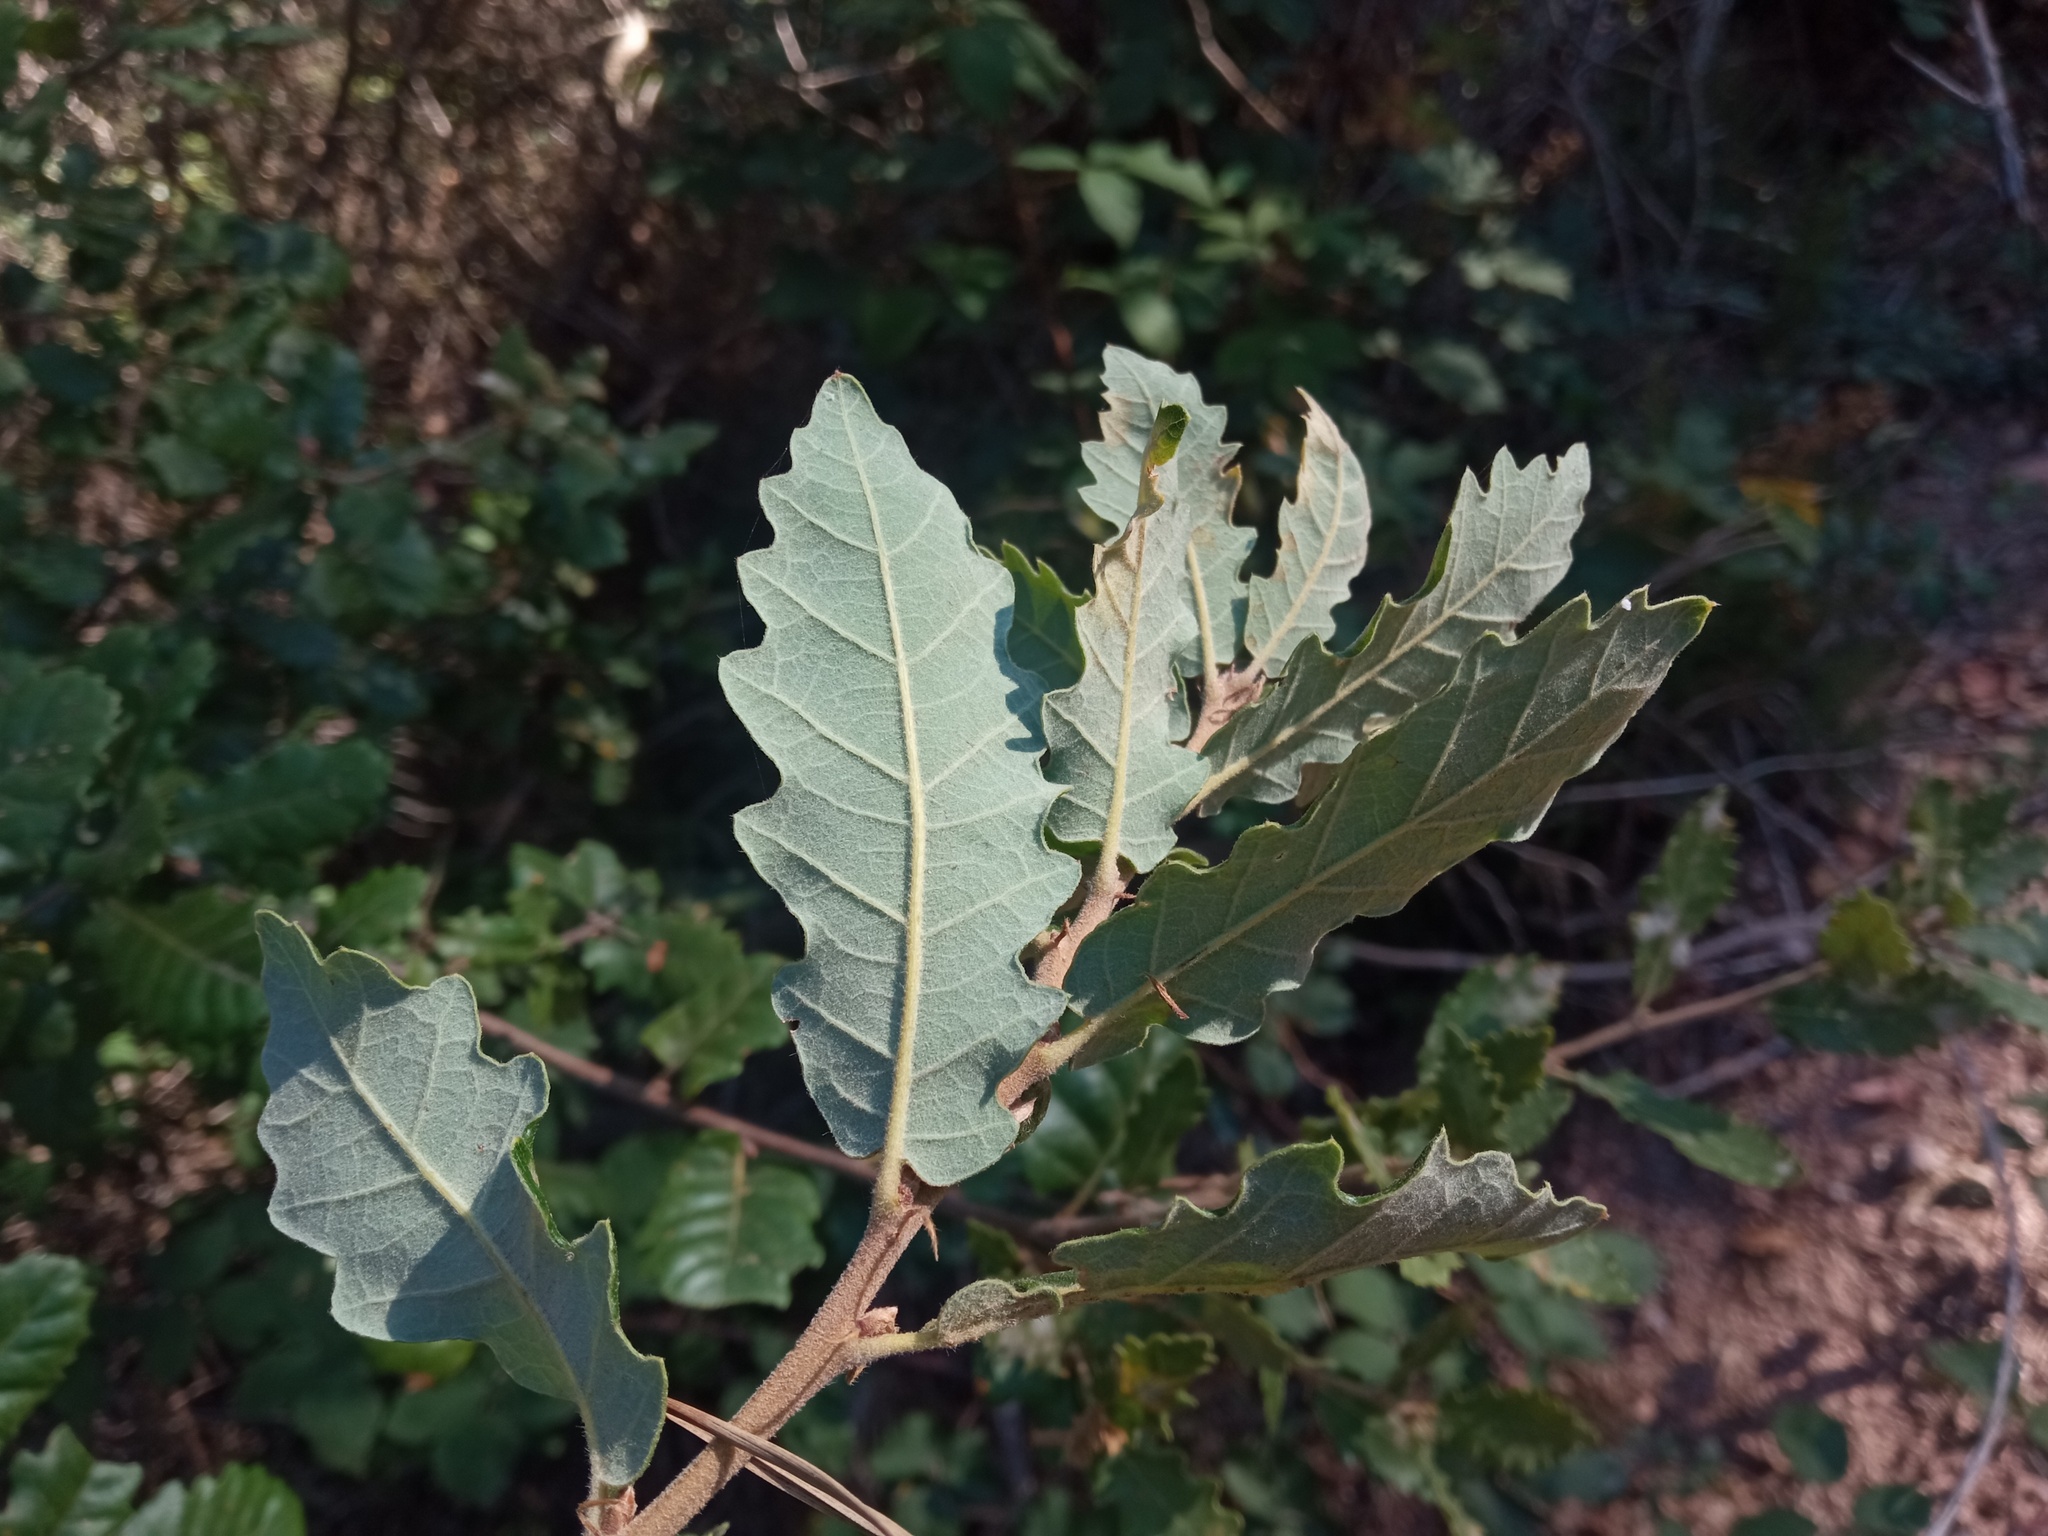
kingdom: Plantae
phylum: Tracheophyta
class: Magnoliopsida
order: Fagales
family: Fagaceae
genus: Quercus
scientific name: Quercus cerrioides
